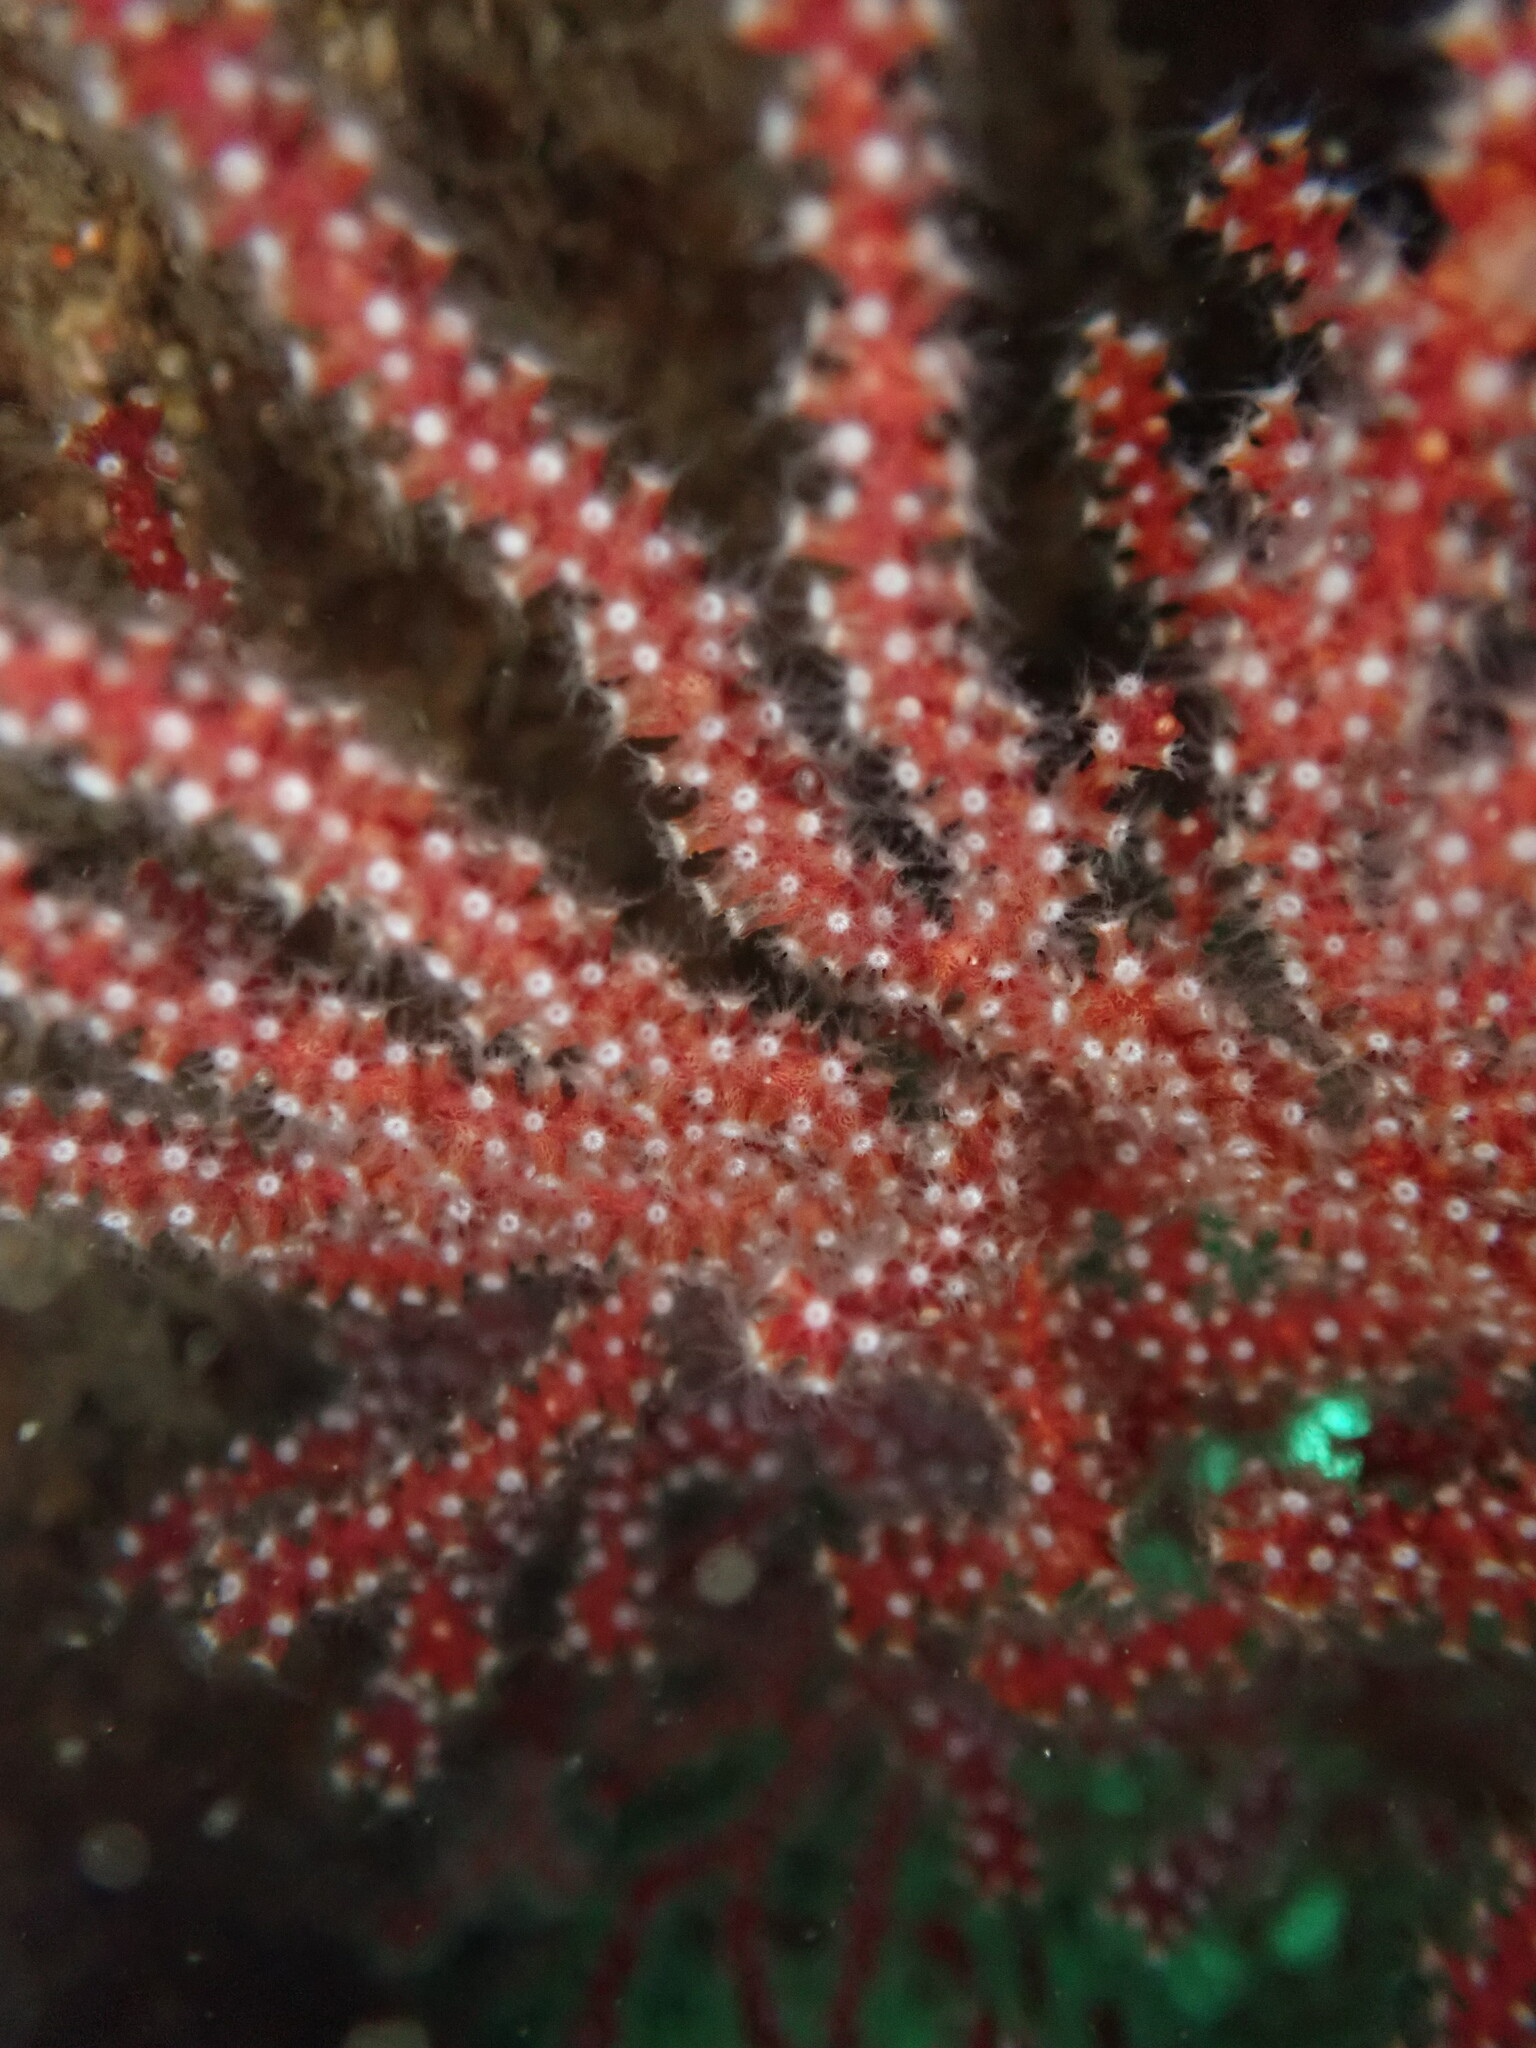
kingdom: Animalia
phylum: Cnidaria
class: Anthozoa
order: Malacalcyonacea
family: Plexauridae
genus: Muricea
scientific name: Muricea fruticosa
